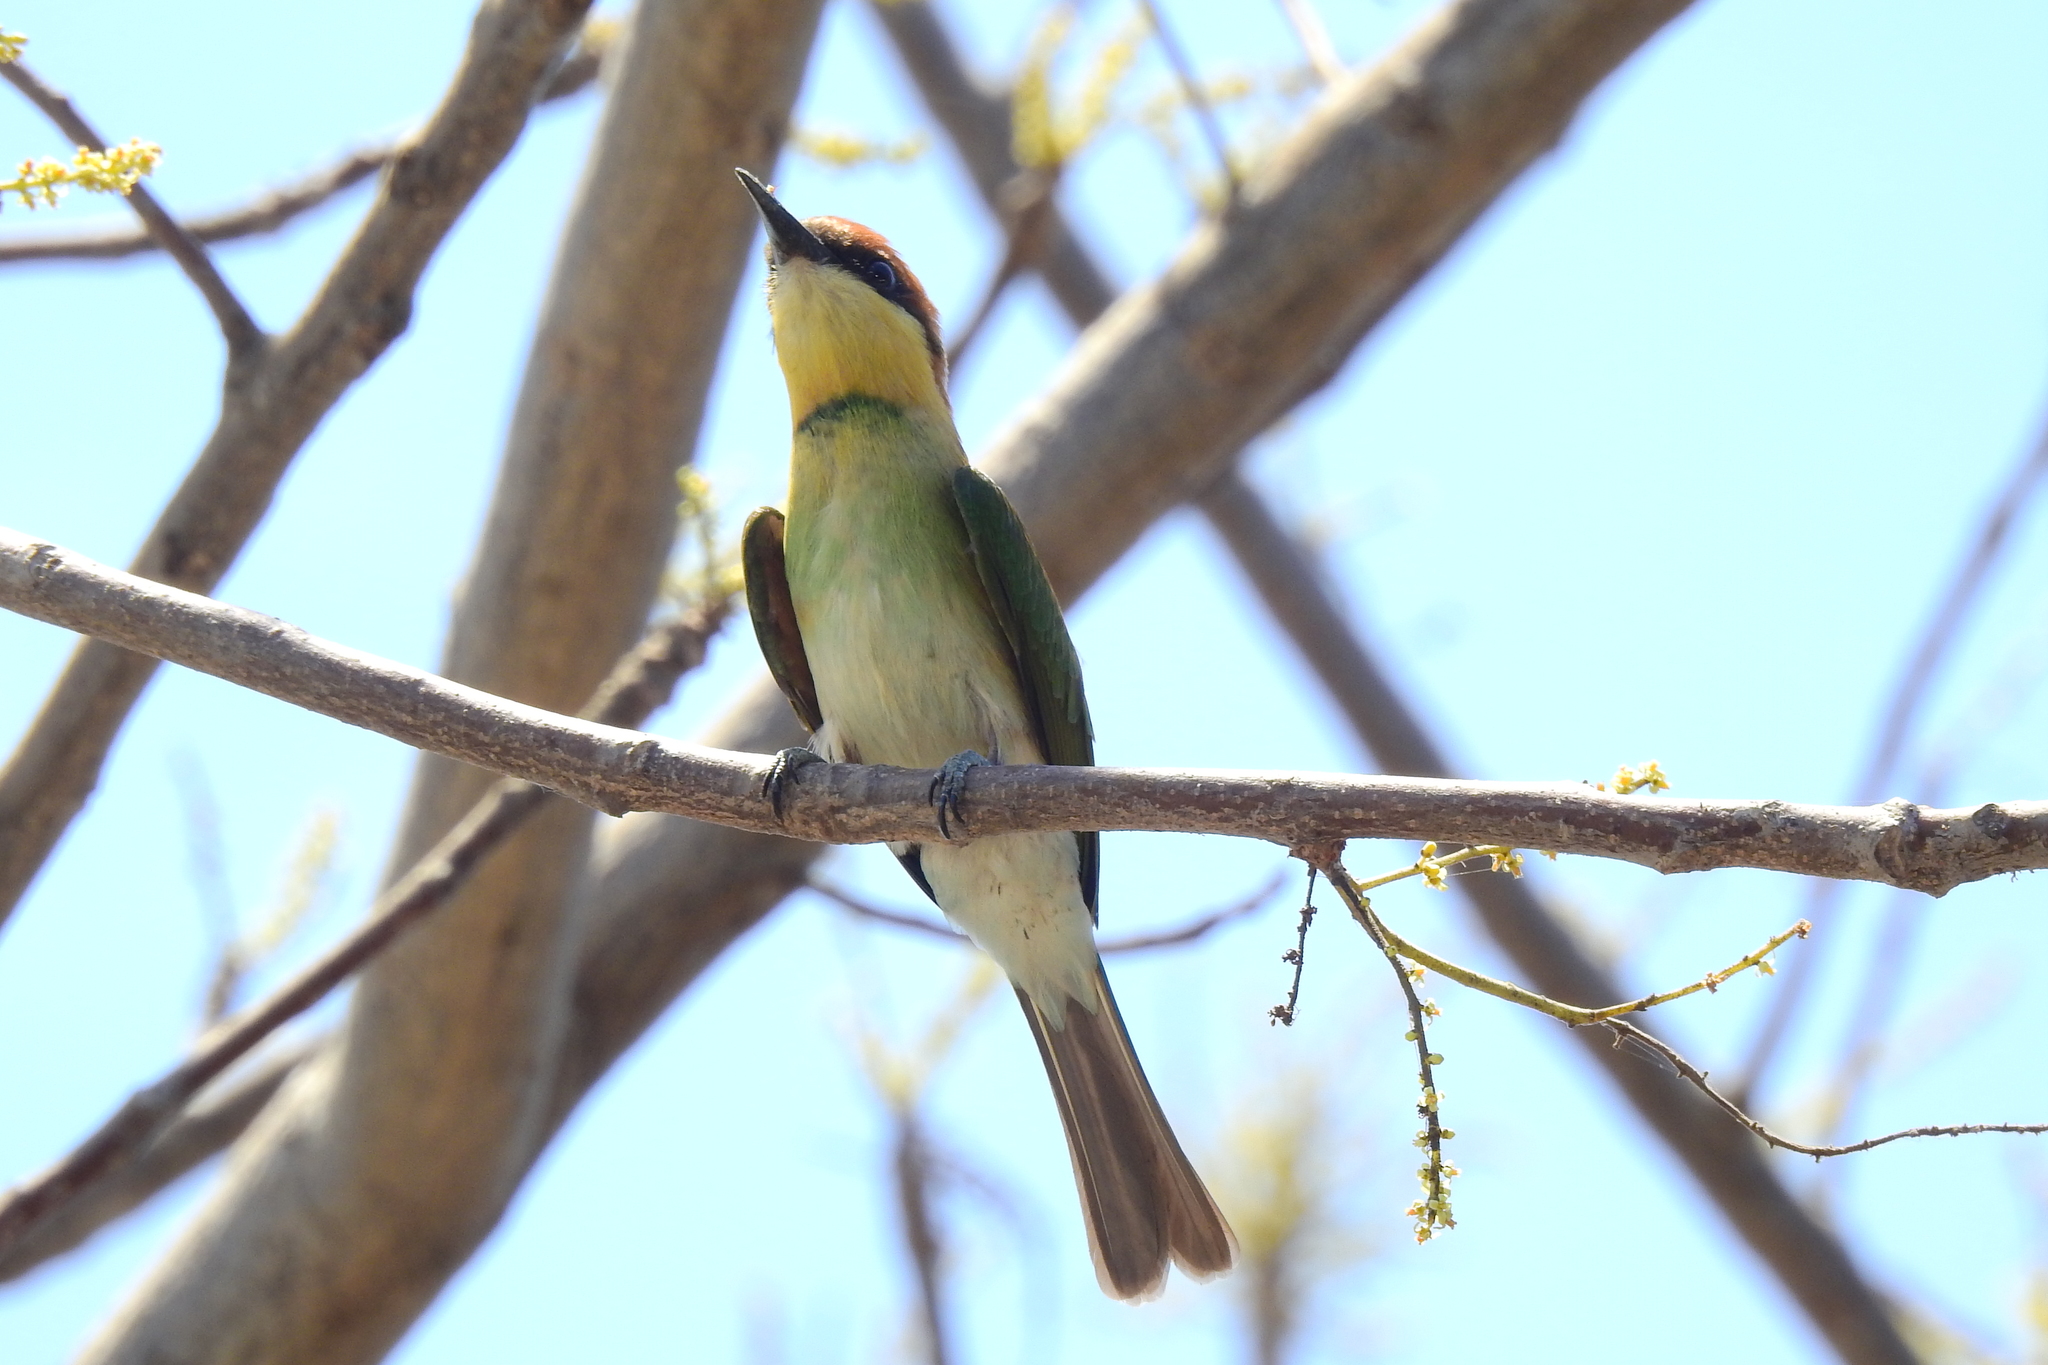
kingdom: Animalia
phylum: Chordata
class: Aves
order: Coraciiformes
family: Meropidae
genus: Merops
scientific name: Merops leschenaulti
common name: Chestnut-headed bee-eater
